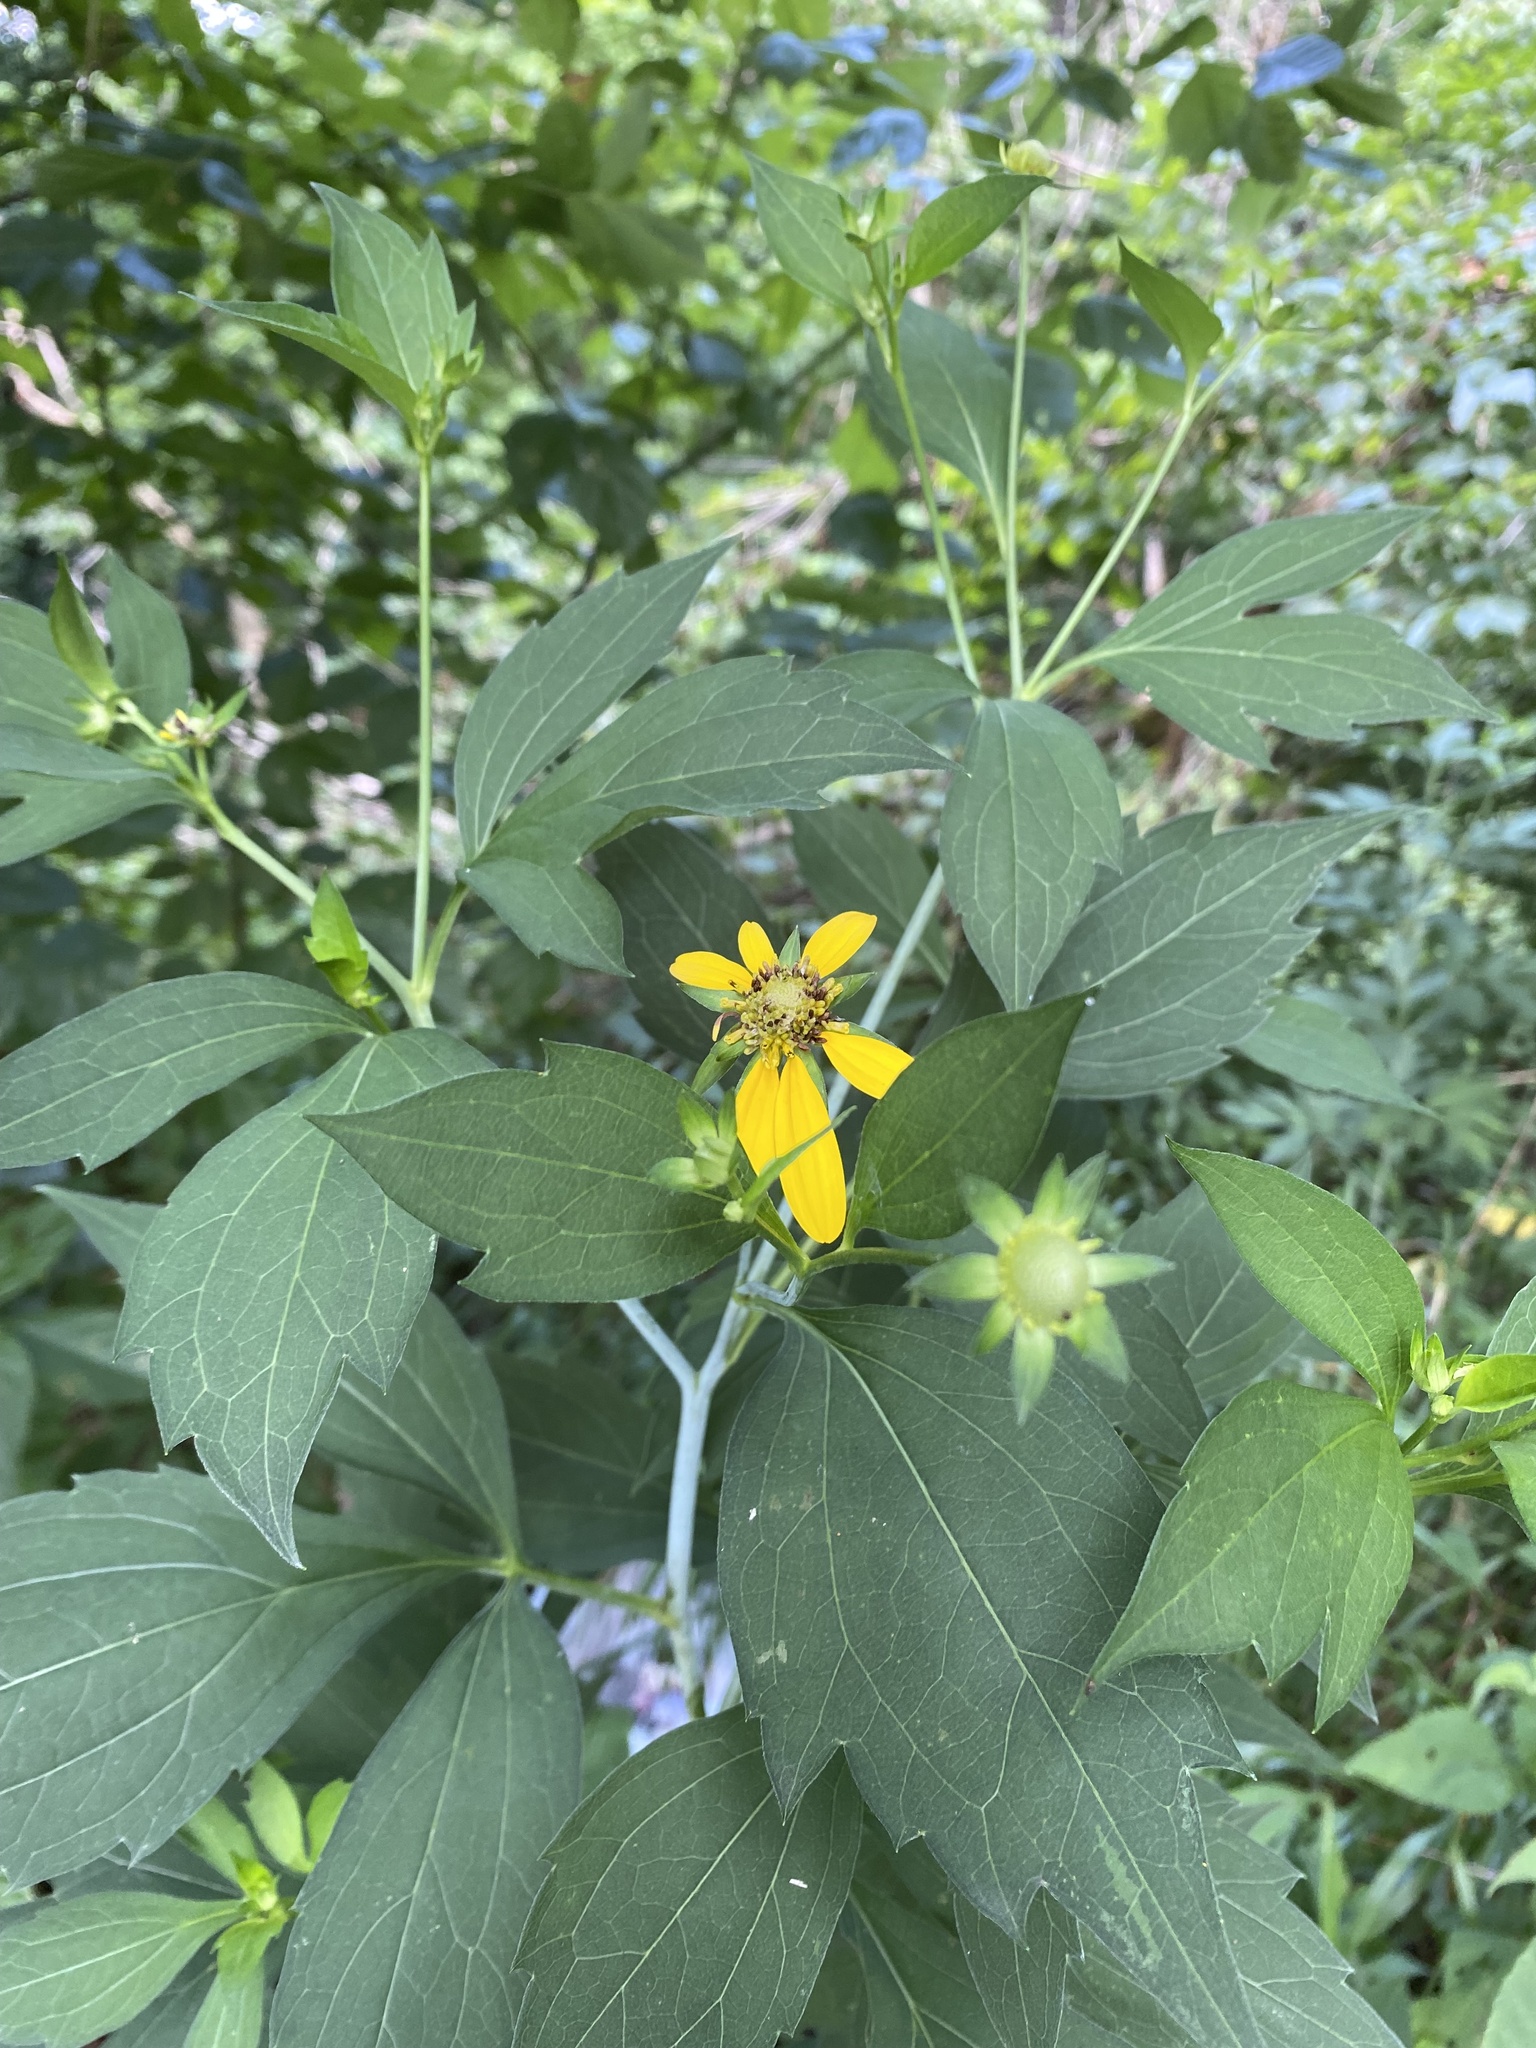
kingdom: Plantae
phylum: Tracheophyta
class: Magnoliopsida
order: Asterales
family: Asteraceae
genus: Rudbeckia
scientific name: Rudbeckia laciniata
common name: Coneflower
